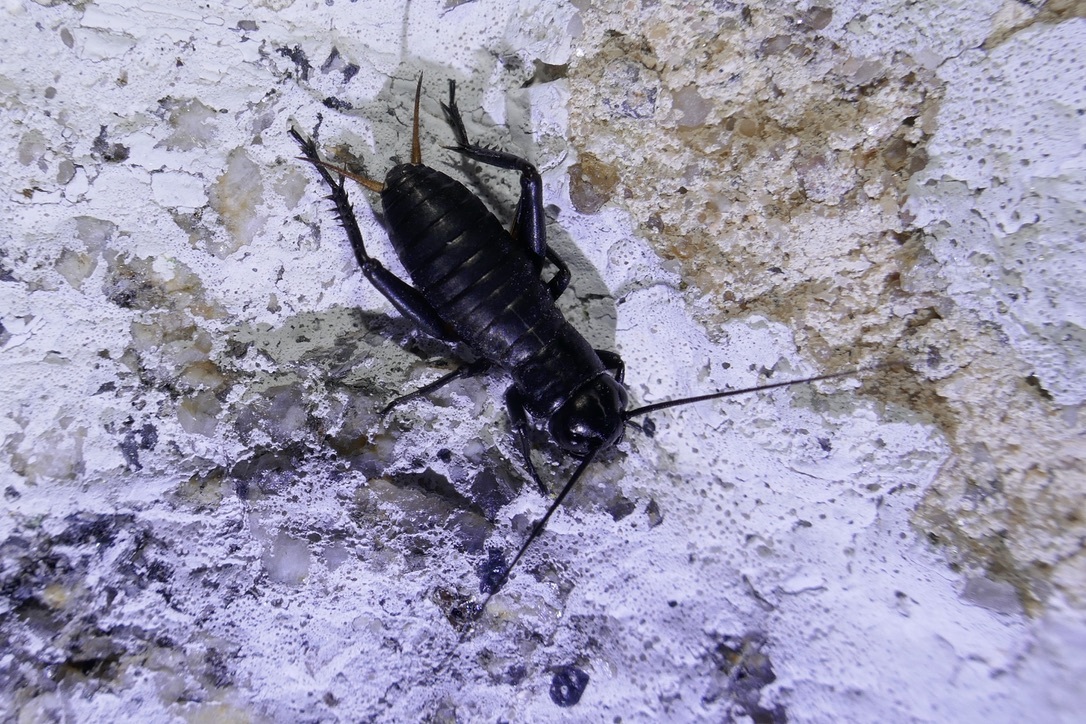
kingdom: Animalia
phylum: Arthropoda
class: Insecta
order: Orthoptera
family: Gryllidae
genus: Gryllus
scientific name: Gryllus campestris
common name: Field cricket
